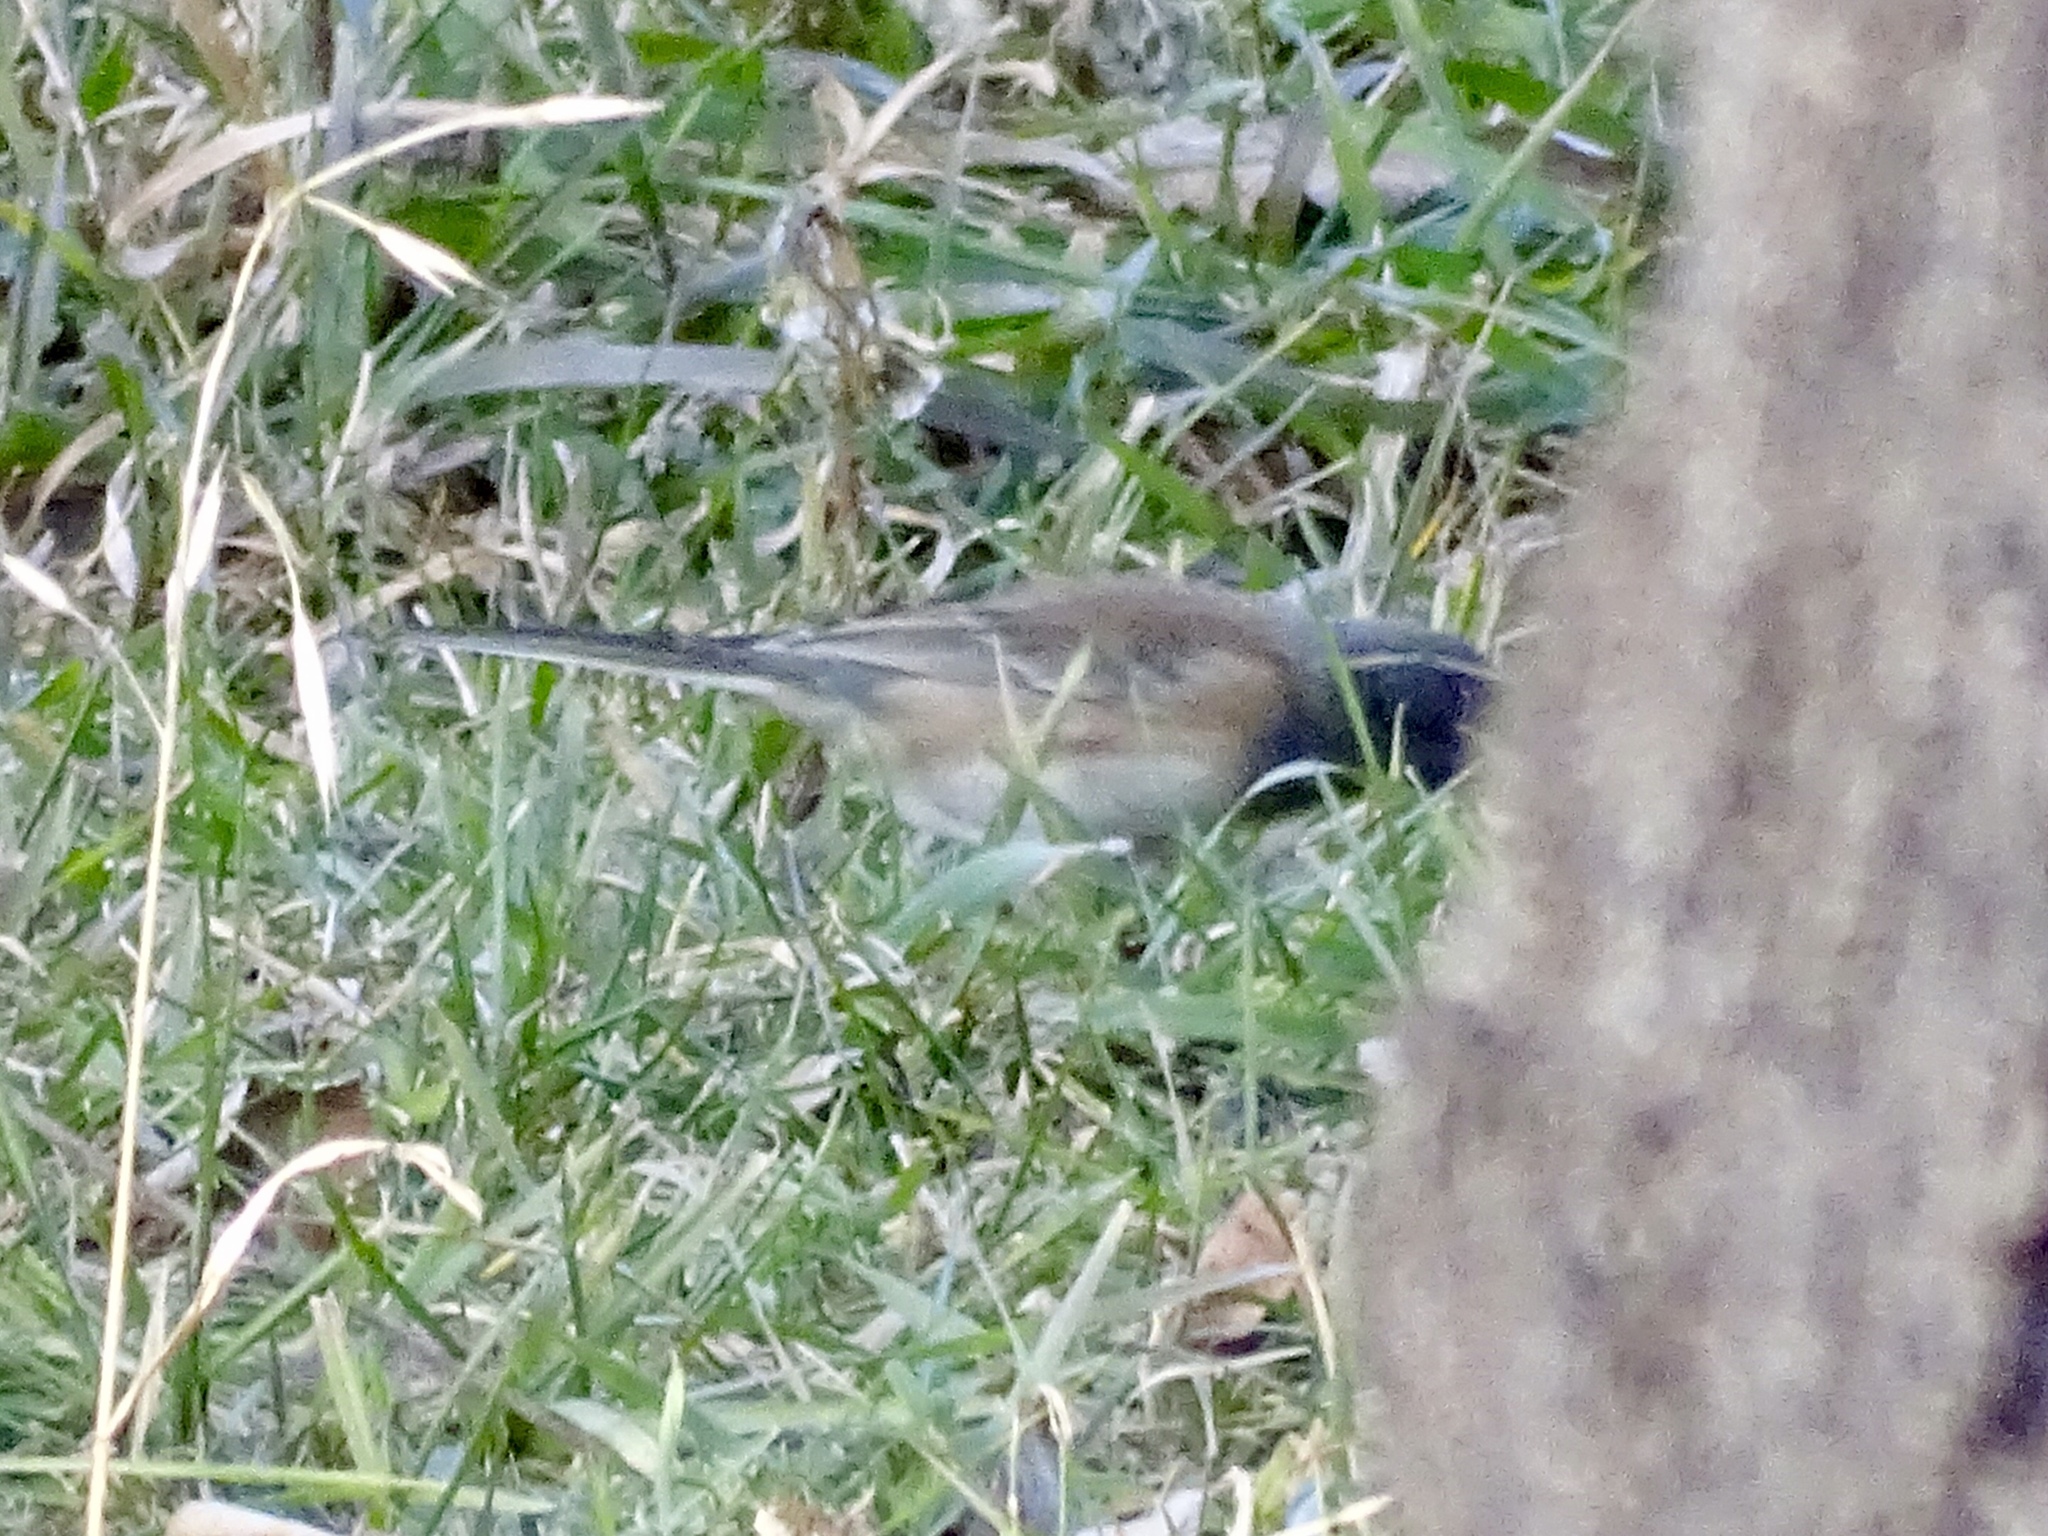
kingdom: Animalia
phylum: Chordata
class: Aves
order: Passeriformes
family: Passerellidae
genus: Junco
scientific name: Junco hyemalis
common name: Dark-eyed junco
